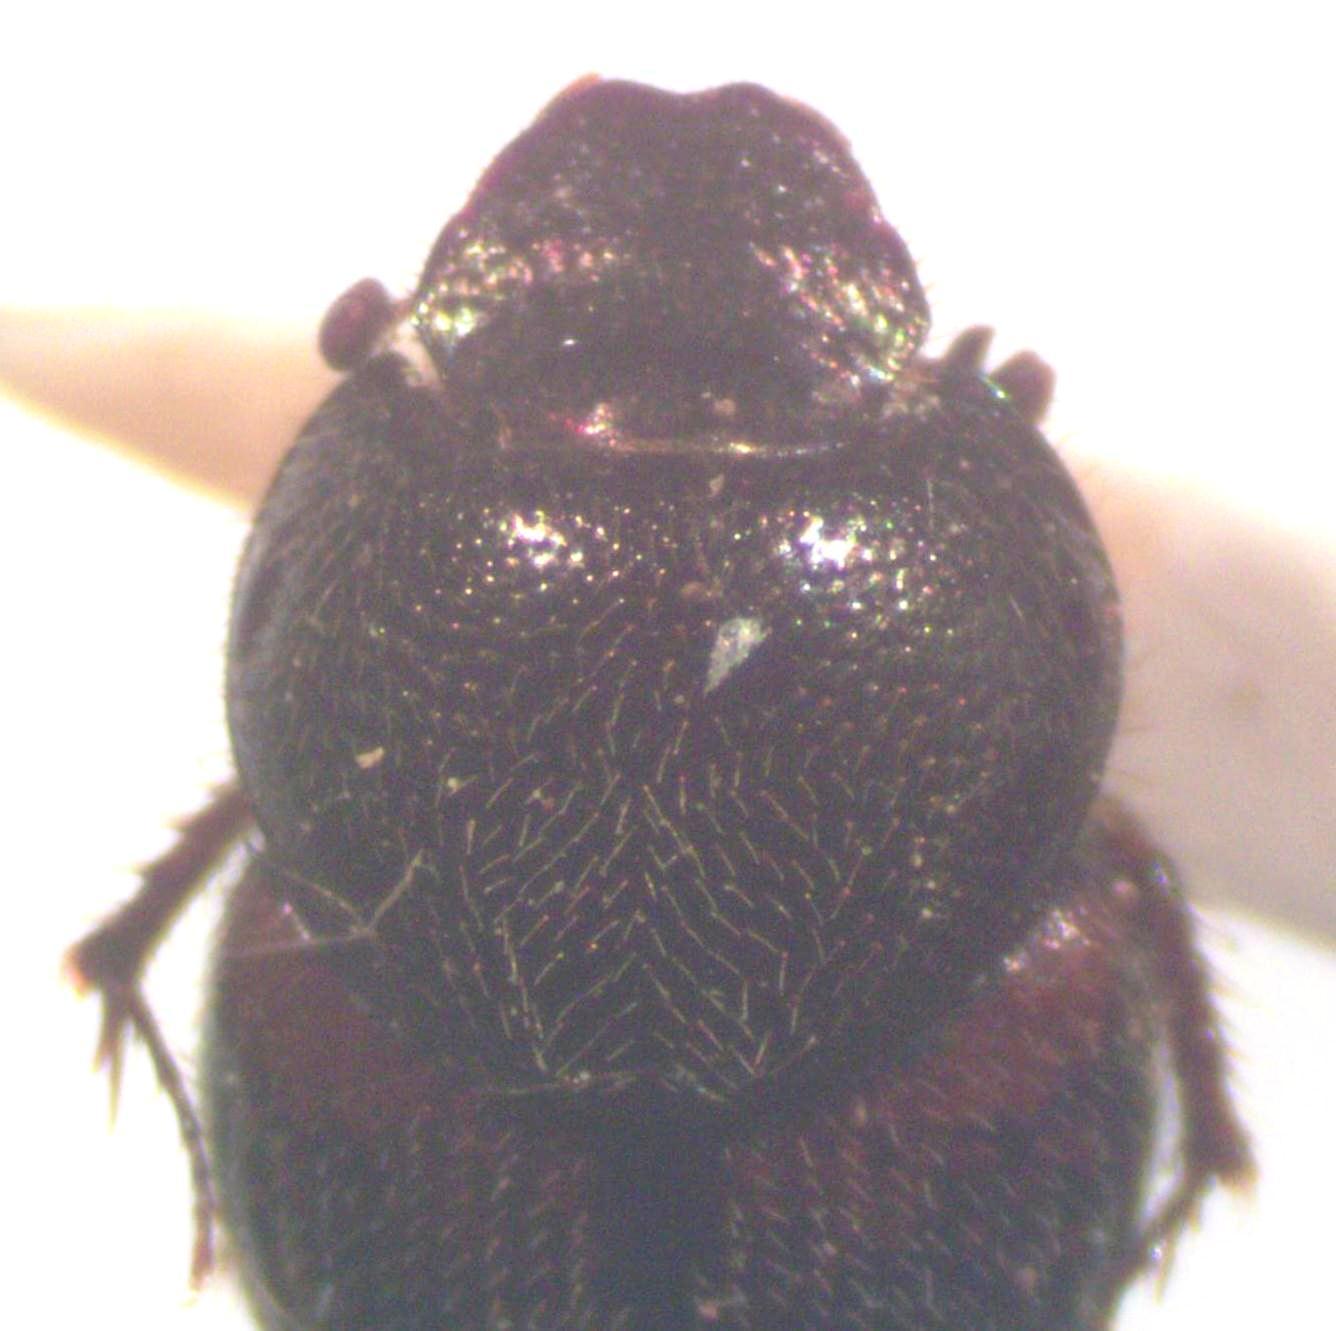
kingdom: Animalia
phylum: Arthropoda
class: Insecta
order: Coleoptera
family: Scarabaeidae
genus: Onthophagus
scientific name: Onthophagus hoepfneri
